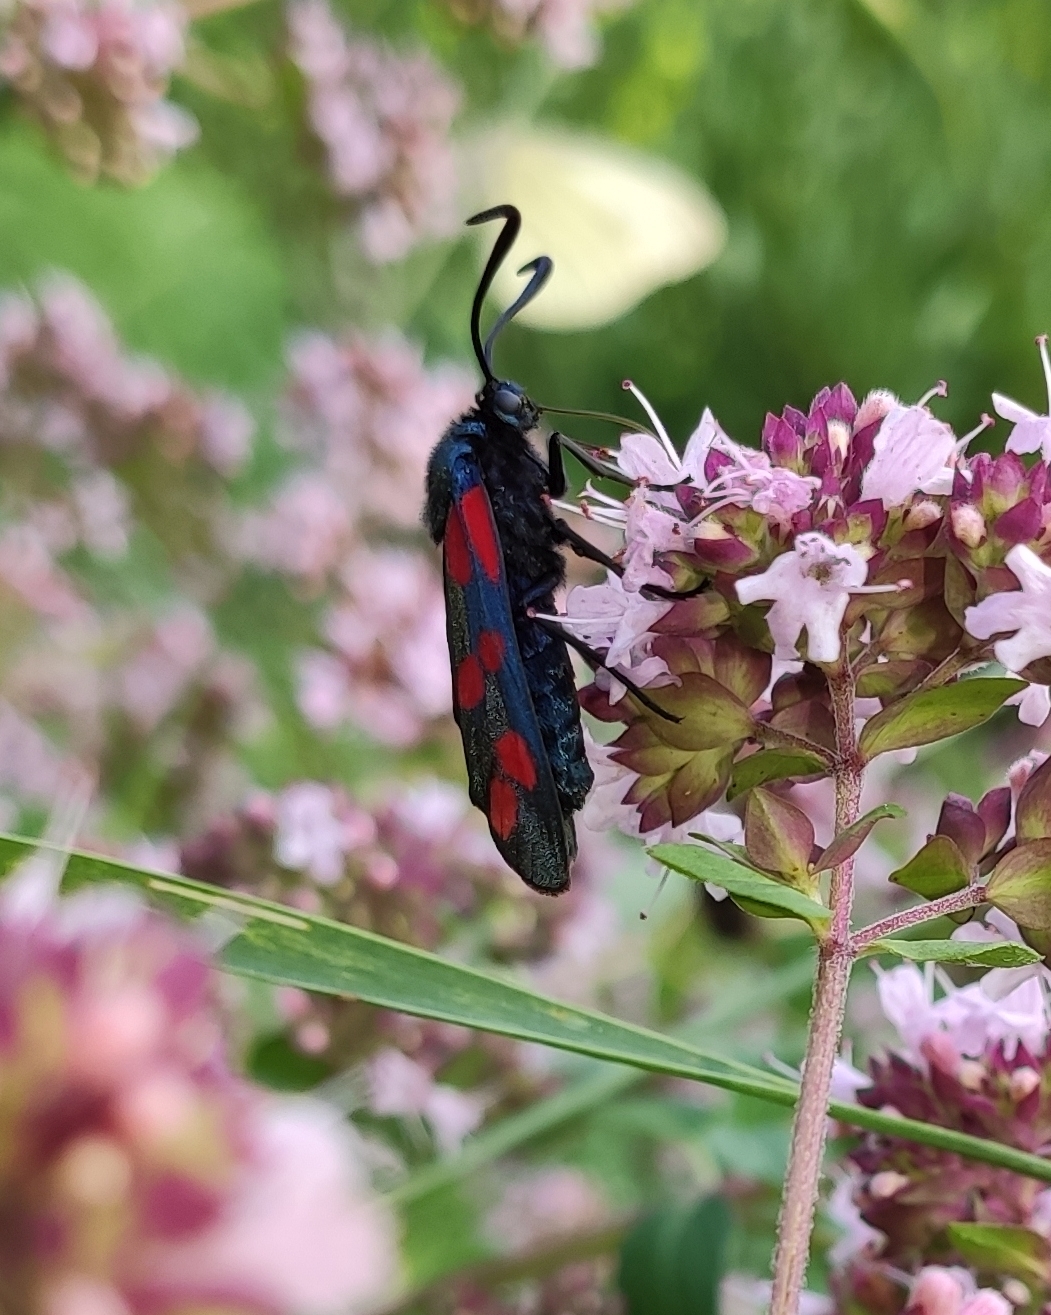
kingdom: Animalia
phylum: Arthropoda
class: Insecta
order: Lepidoptera
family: Zygaenidae
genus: Zygaena
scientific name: Zygaena filipendulae
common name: Six-spot burnet
